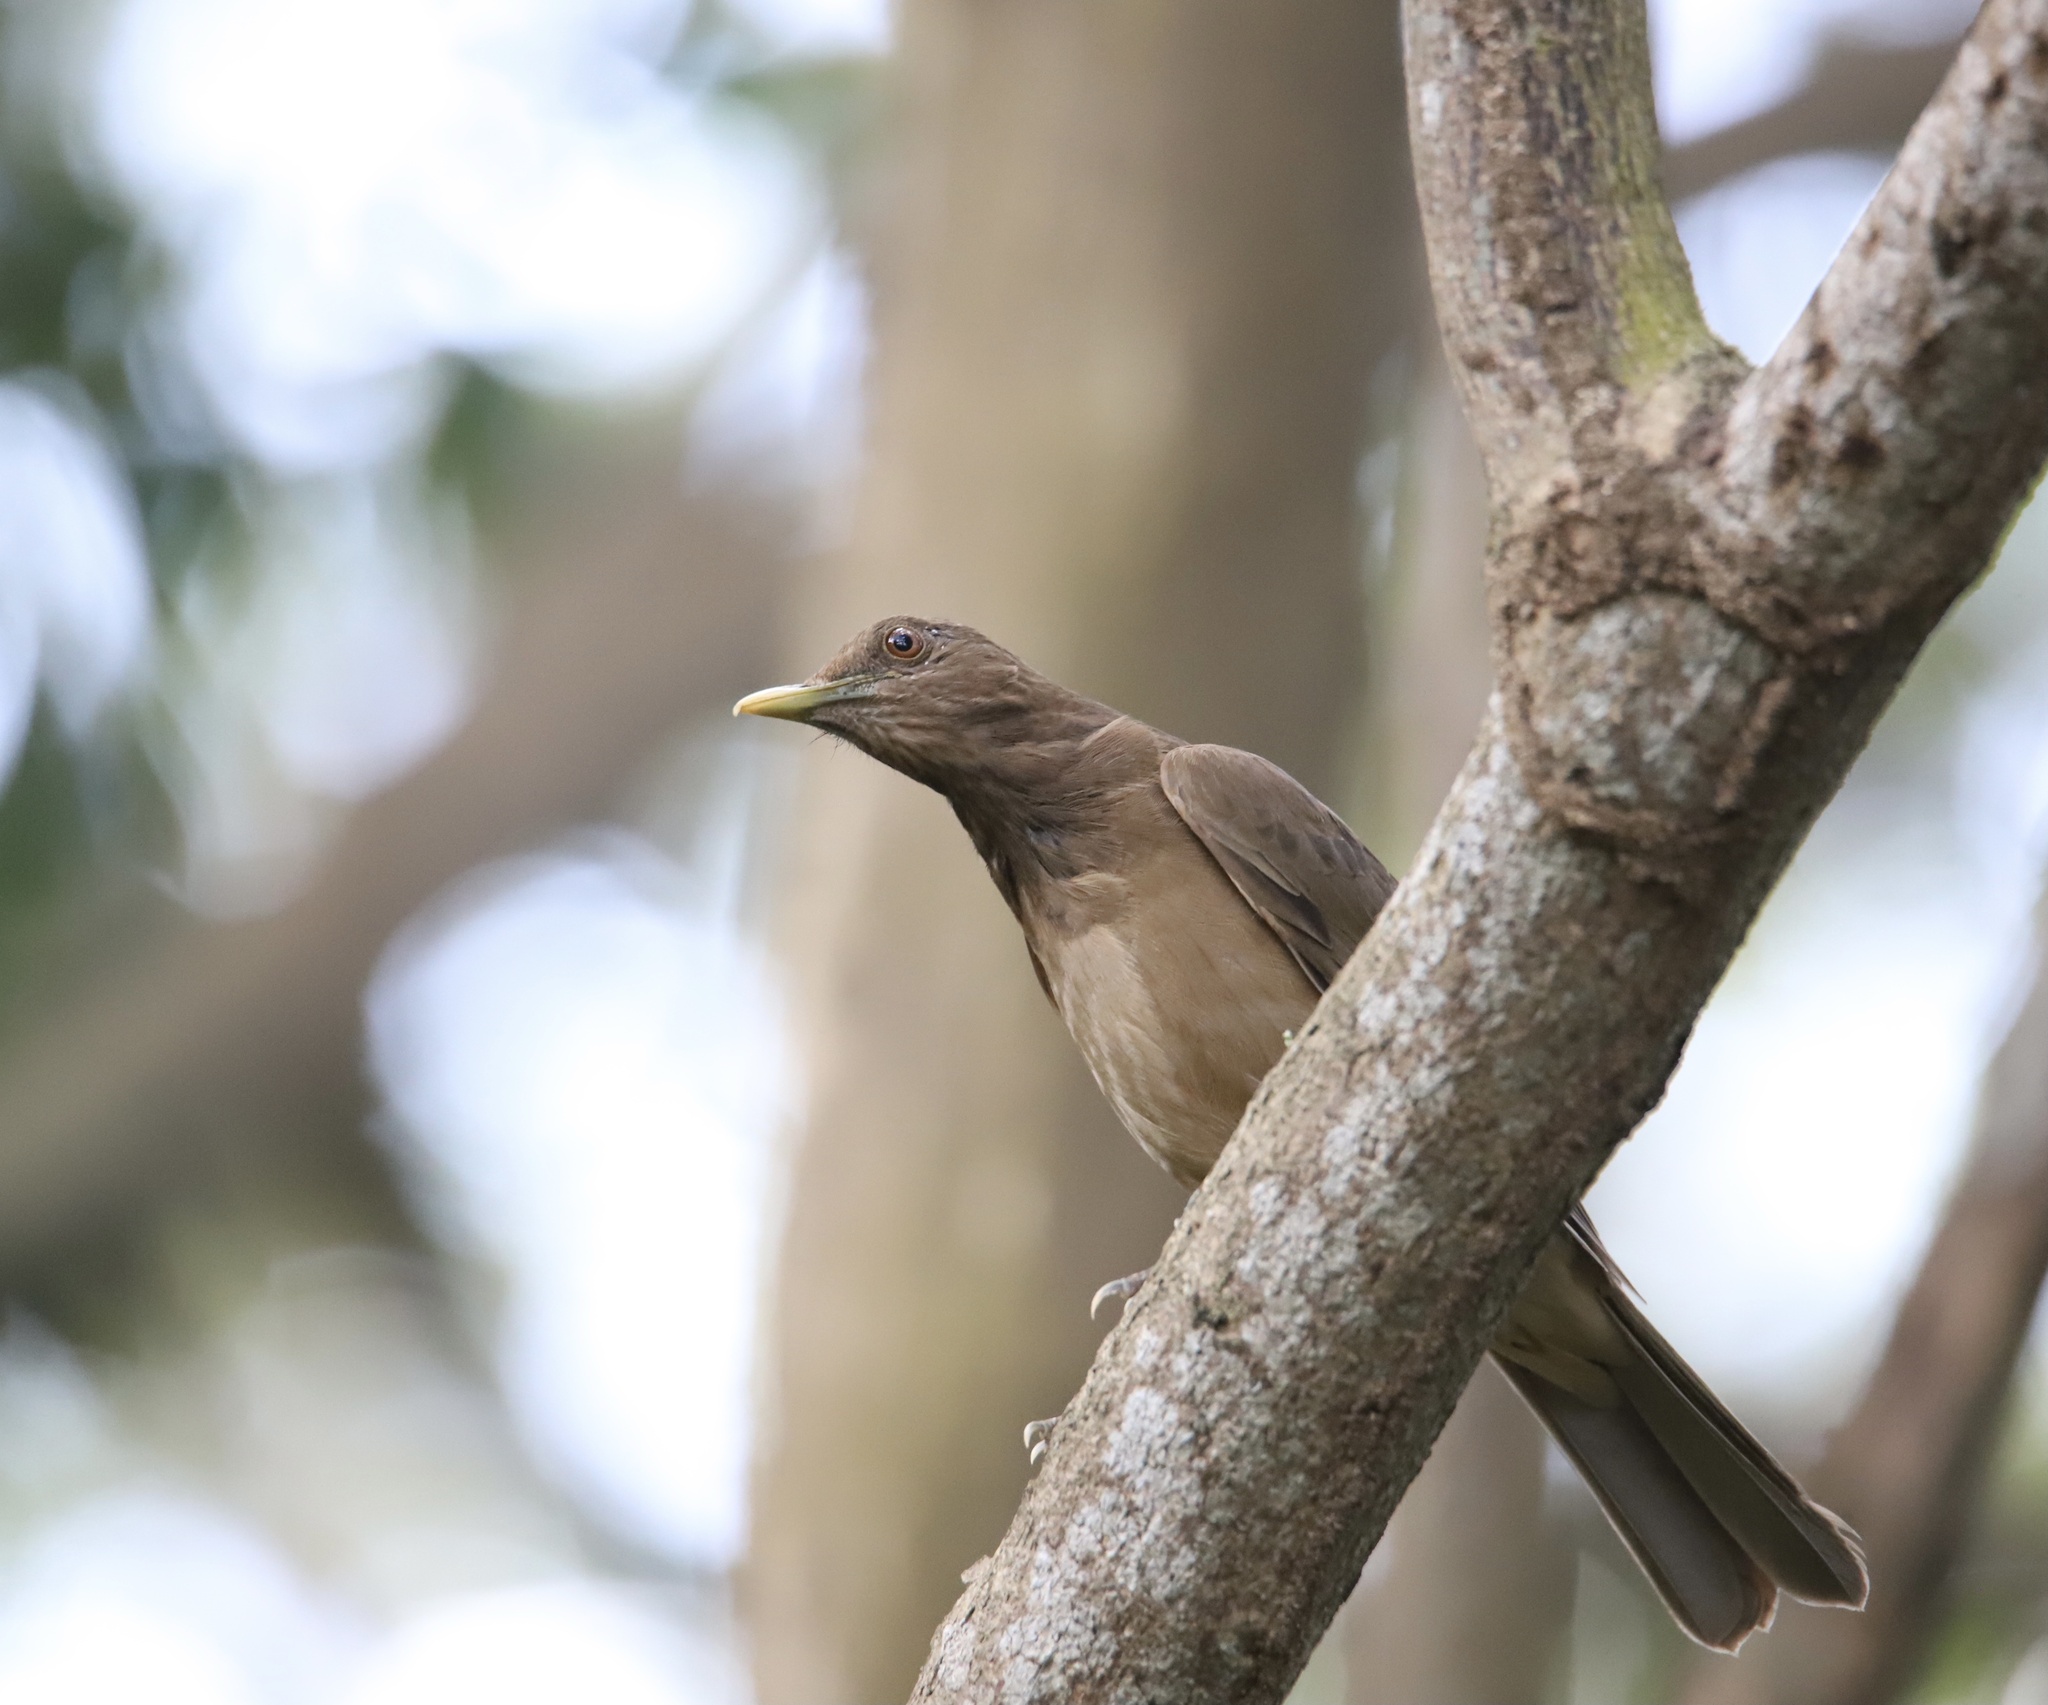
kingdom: Animalia
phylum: Chordata
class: Aves
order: Passeriformes
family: Turdidae
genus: Turdus
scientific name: Turdus grayi
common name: Clay-colored thrush
